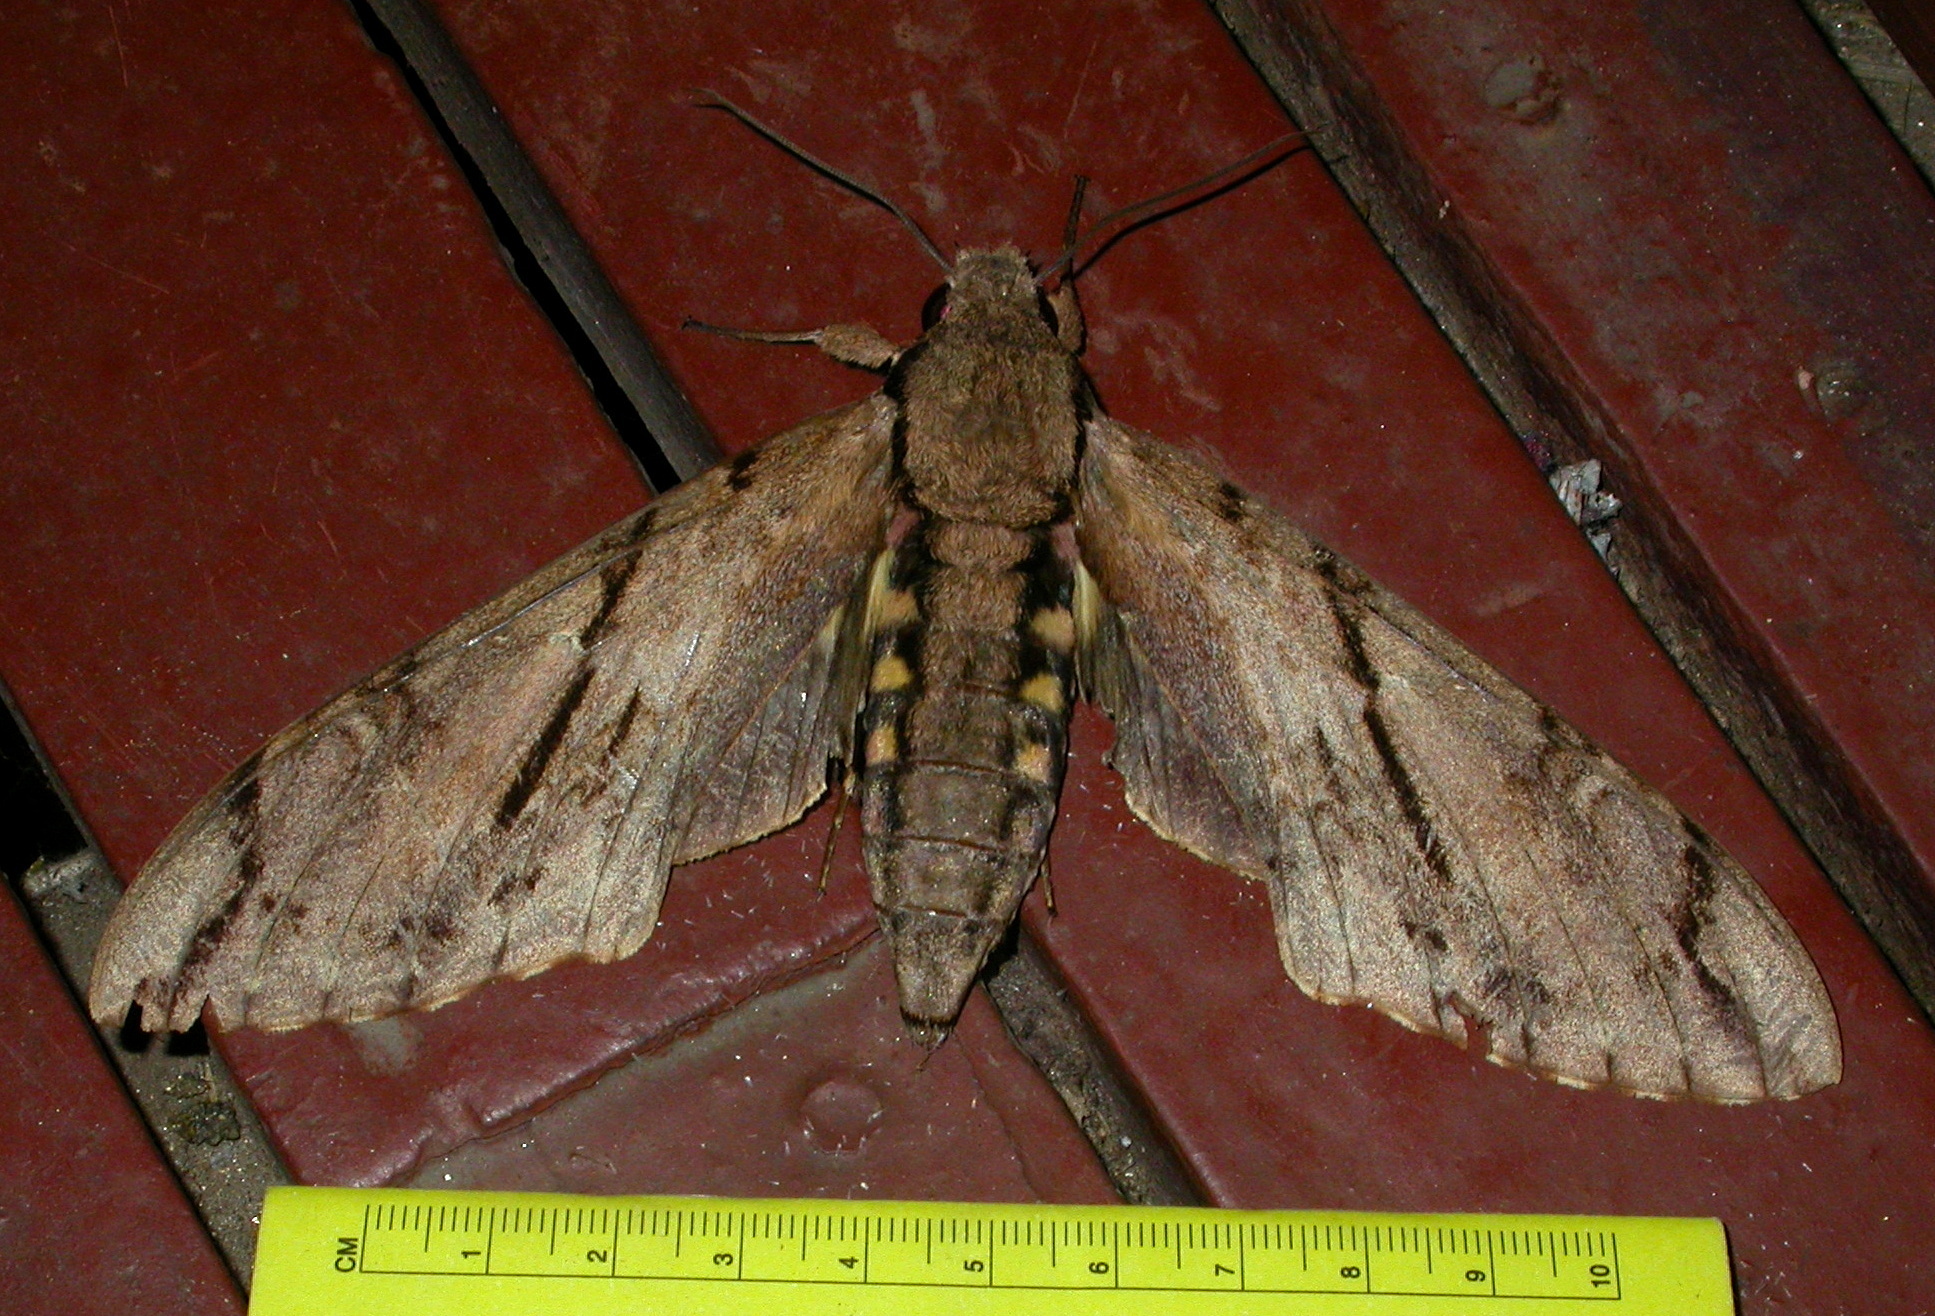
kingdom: Animalia
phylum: Arthropoda
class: Insecta
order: Lepidoptera
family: Sphingidae
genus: Xanthopan
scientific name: Xanthopan morganii
